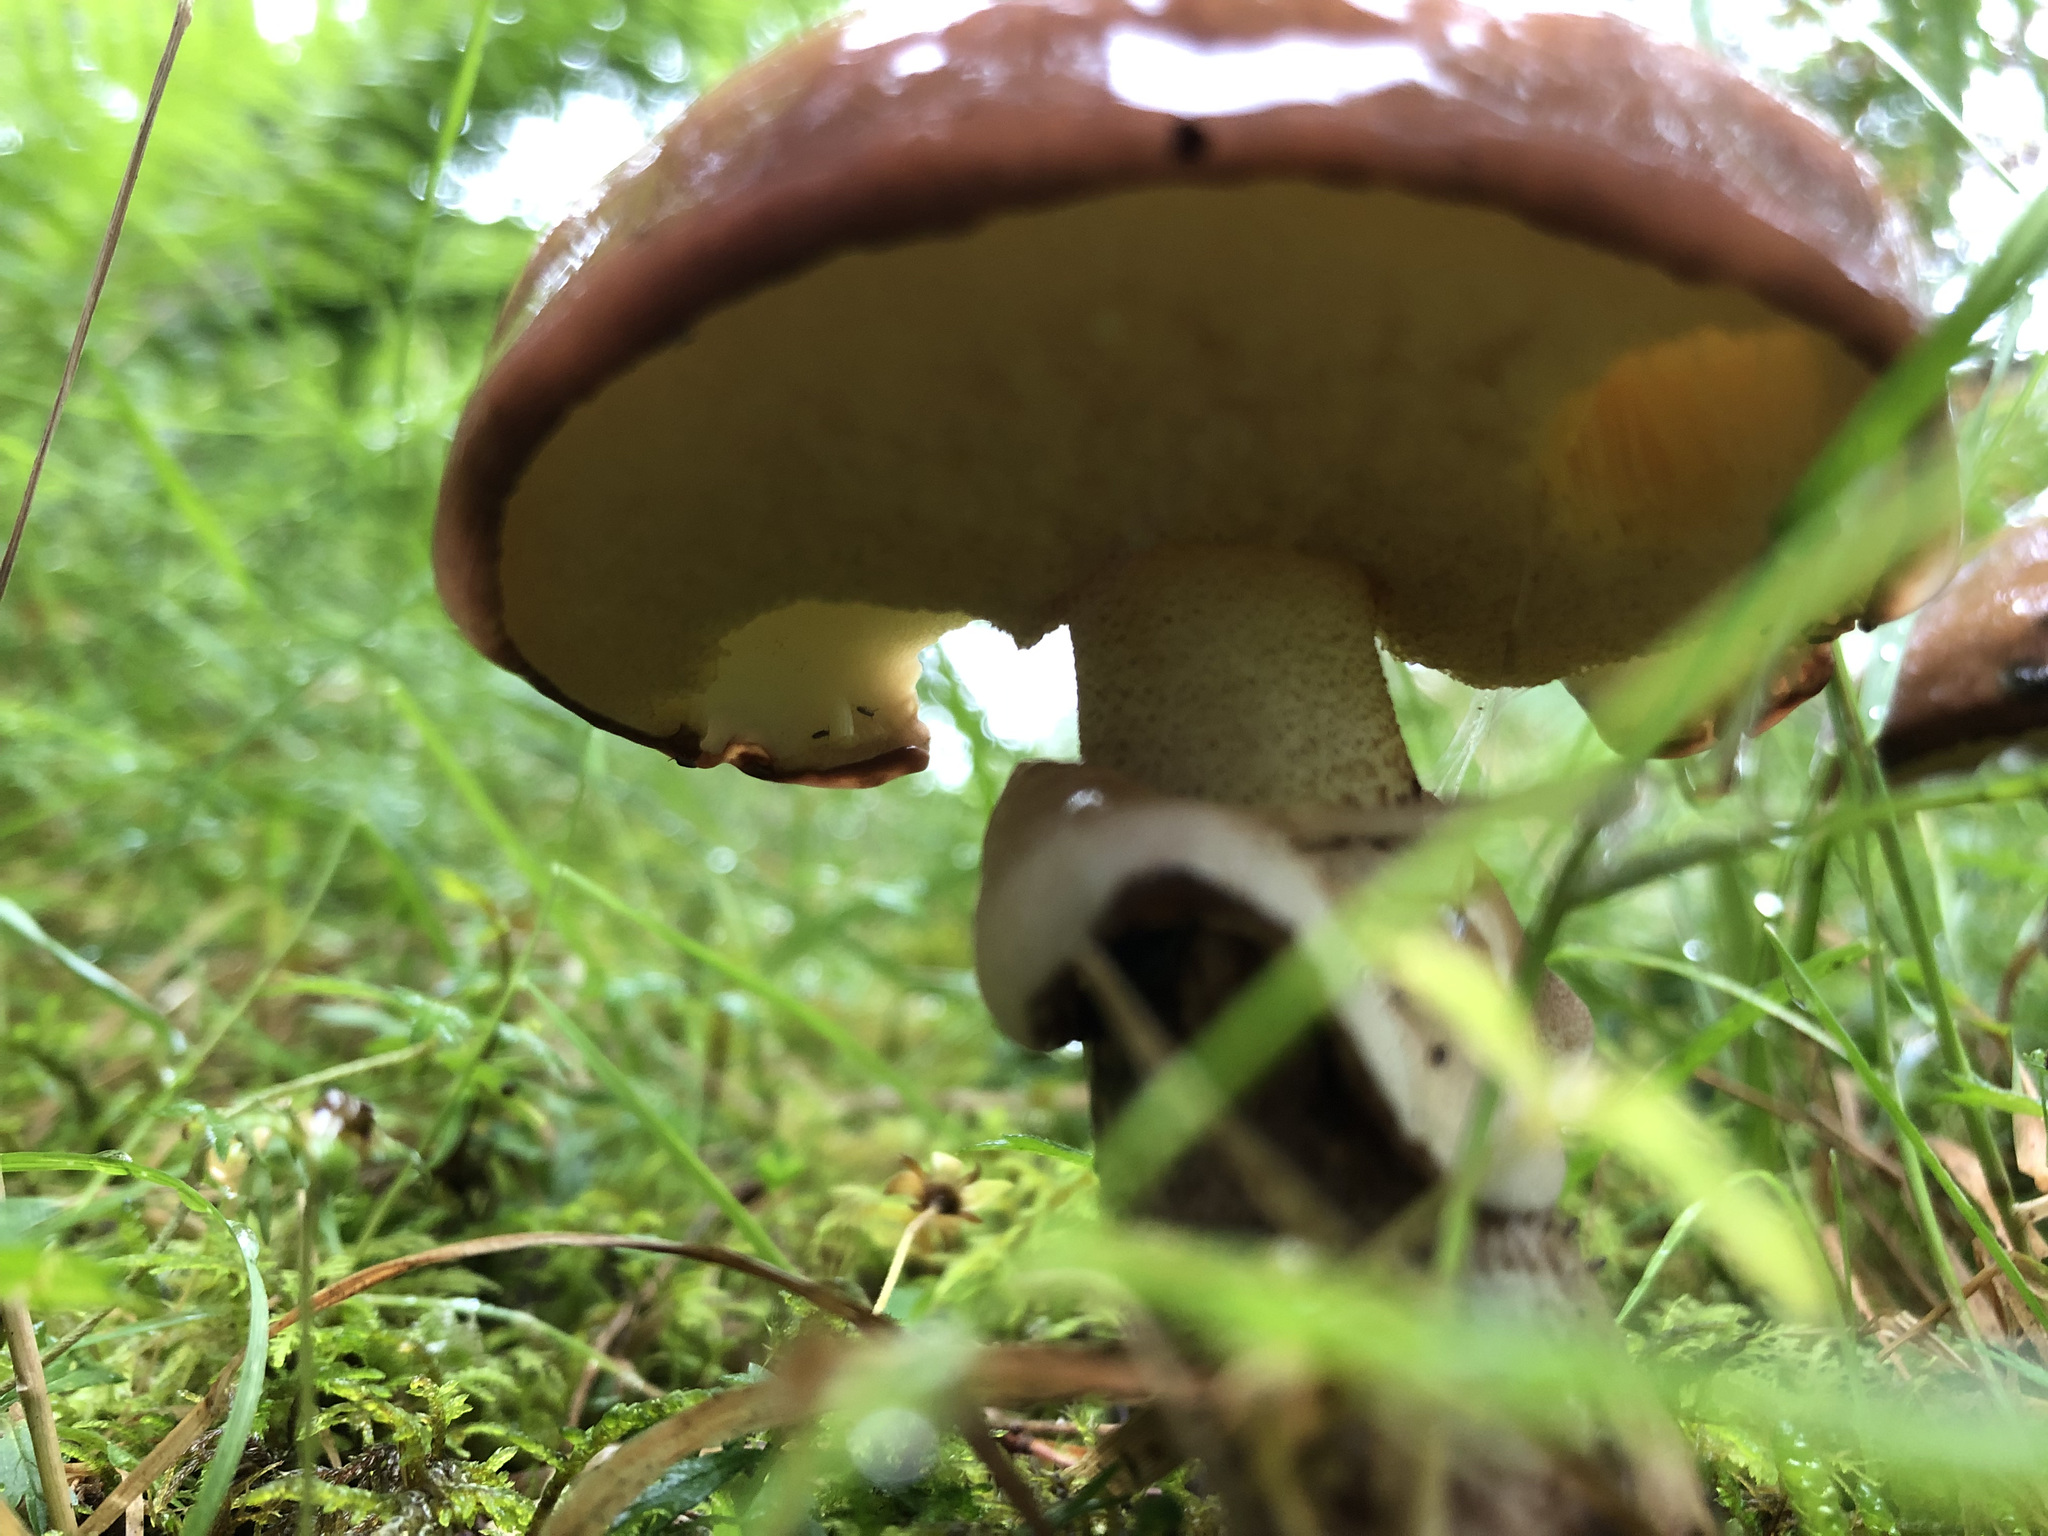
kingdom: Fungi
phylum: Basidiomycota
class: Agaricomycetes
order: Boletales
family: Suillaceae
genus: Suillus
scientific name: Suillus luteus
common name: Slippery jack
